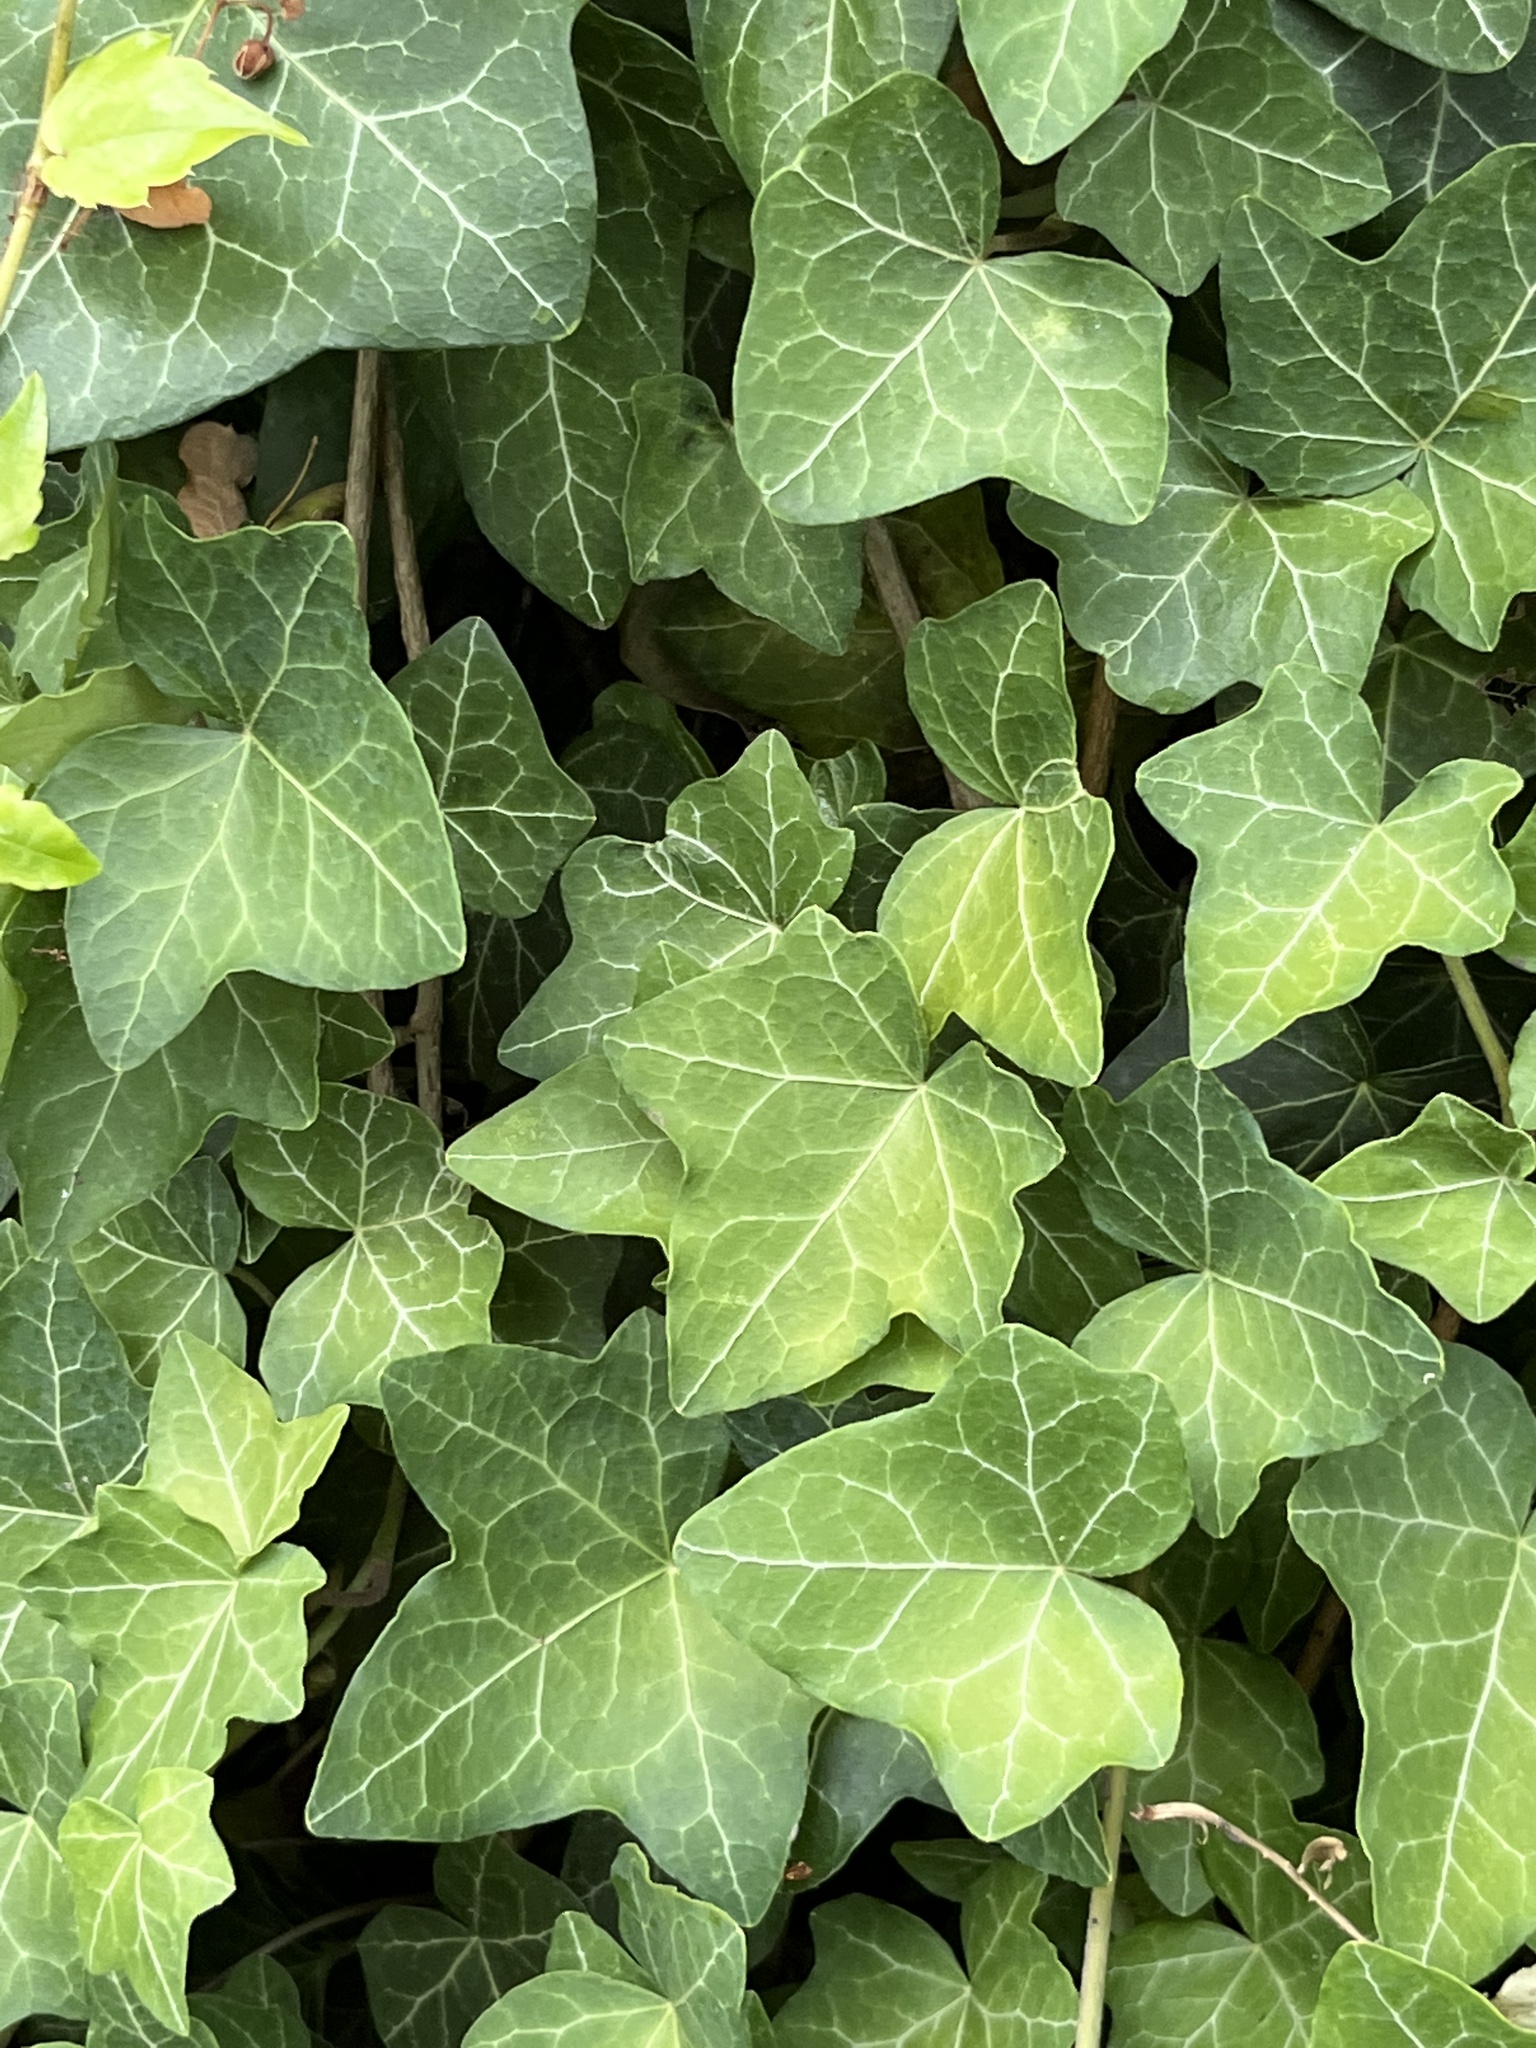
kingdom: Plantae
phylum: Tracheophyta
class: Magnoliopsida
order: Apiales
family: Araliaceae
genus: Hedera
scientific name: Hedera helix
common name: Ivy
